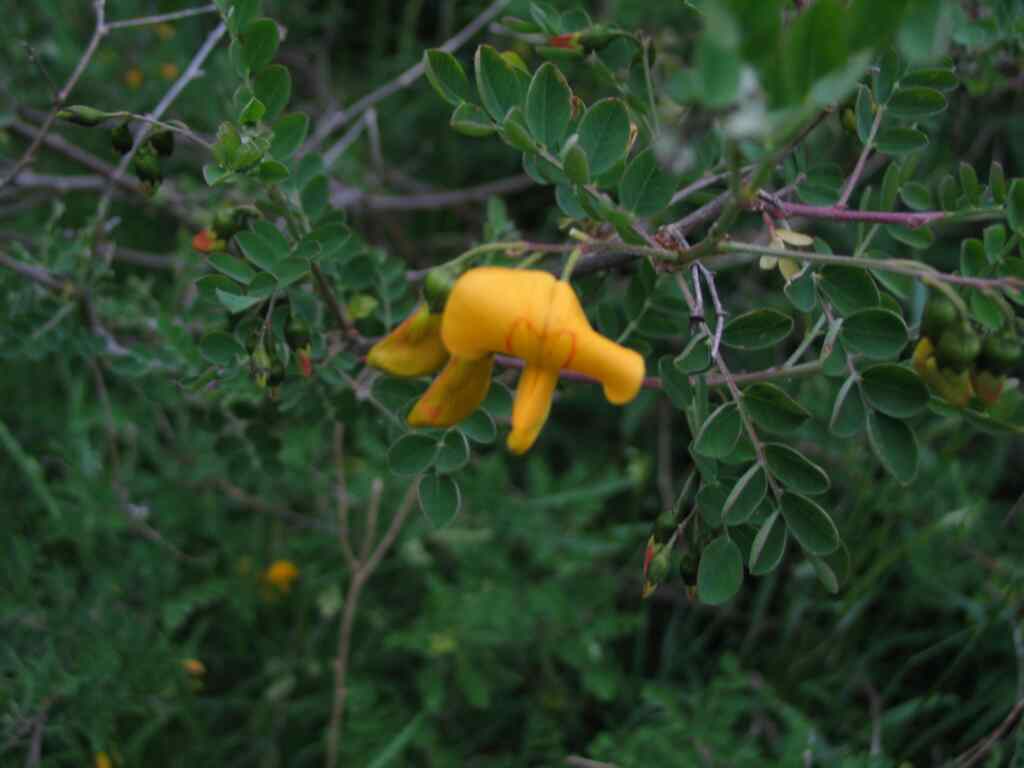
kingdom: Plantae
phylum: Tracheophyta
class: Magnoliopsida
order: Fabales
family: Fabaceae
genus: Colutea
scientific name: Colutea arborescens
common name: Bladder-senna
